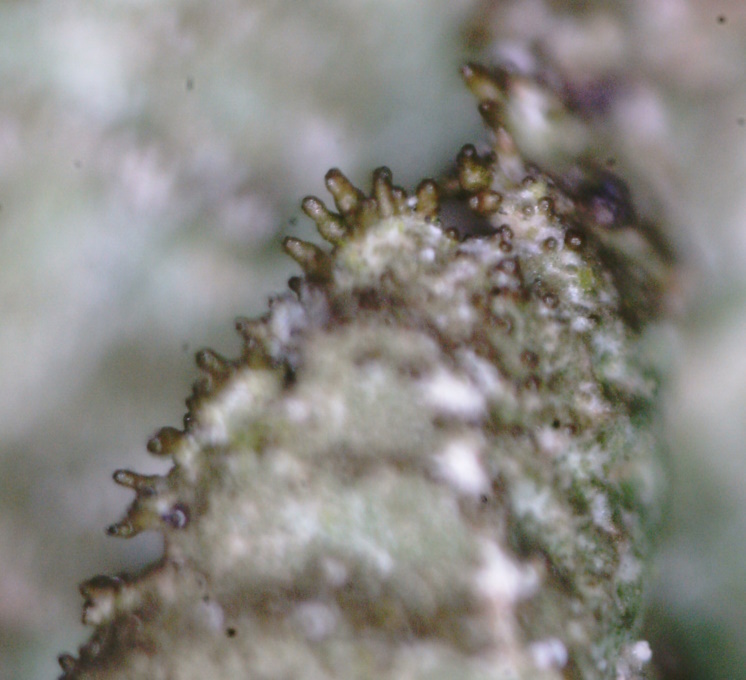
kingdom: Fungi
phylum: Ascomycota
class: Lecanoromycetes
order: Lecanorales
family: Parmeliaceae
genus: Melanelixia
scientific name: Melanelixia glabratula
